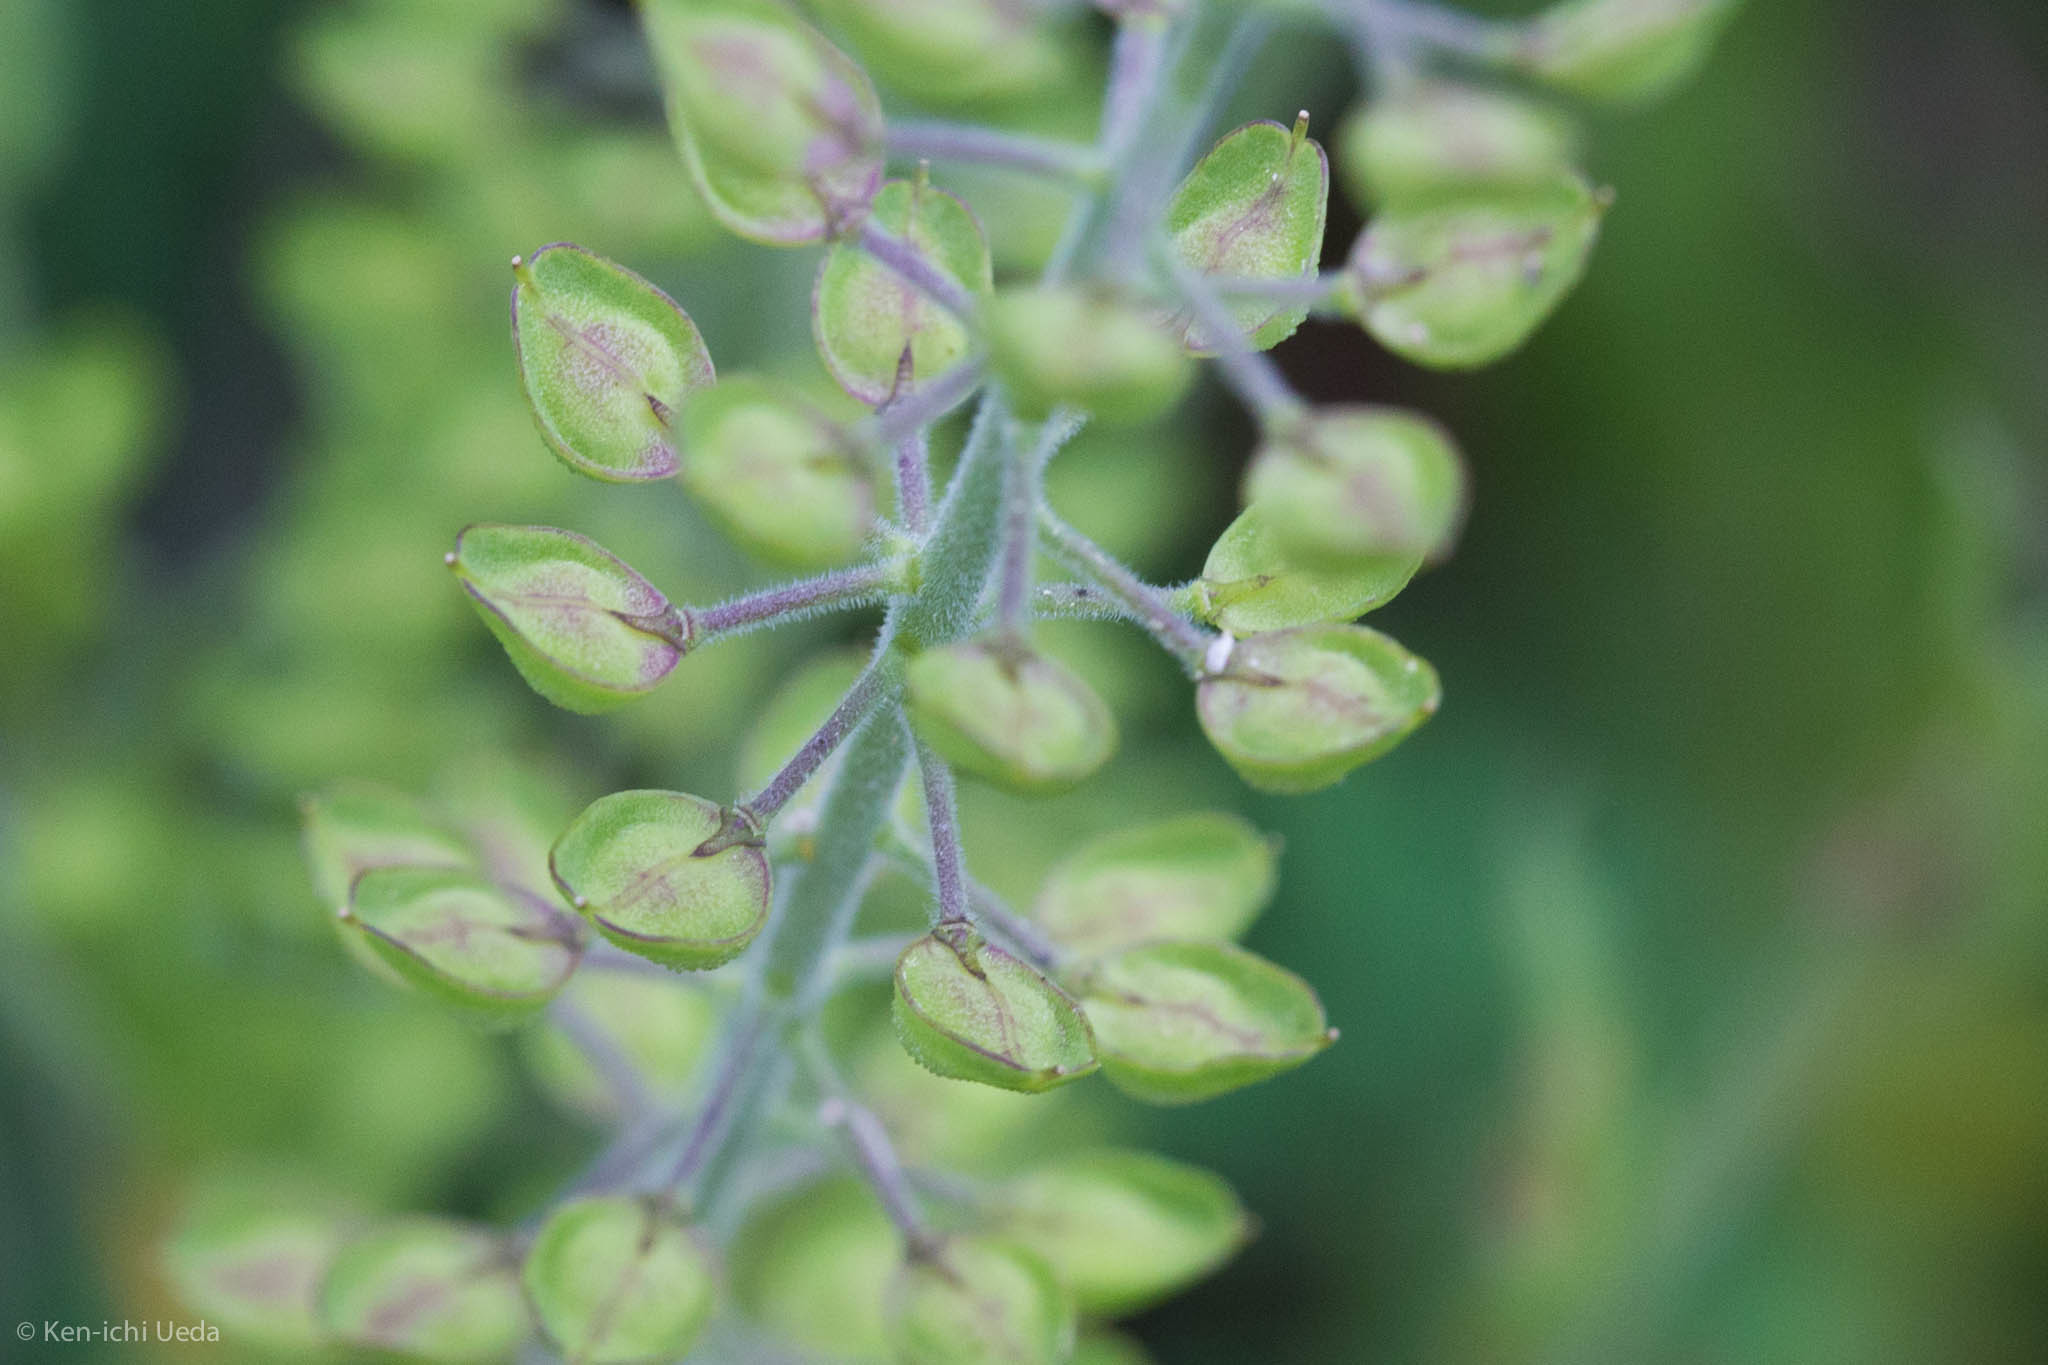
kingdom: Plantae
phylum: Tracheophyta
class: Magnoliopsida
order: Brassicales
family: Brassicaceae
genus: Lepidium
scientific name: Lepidium campestre
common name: Field pepperwort
